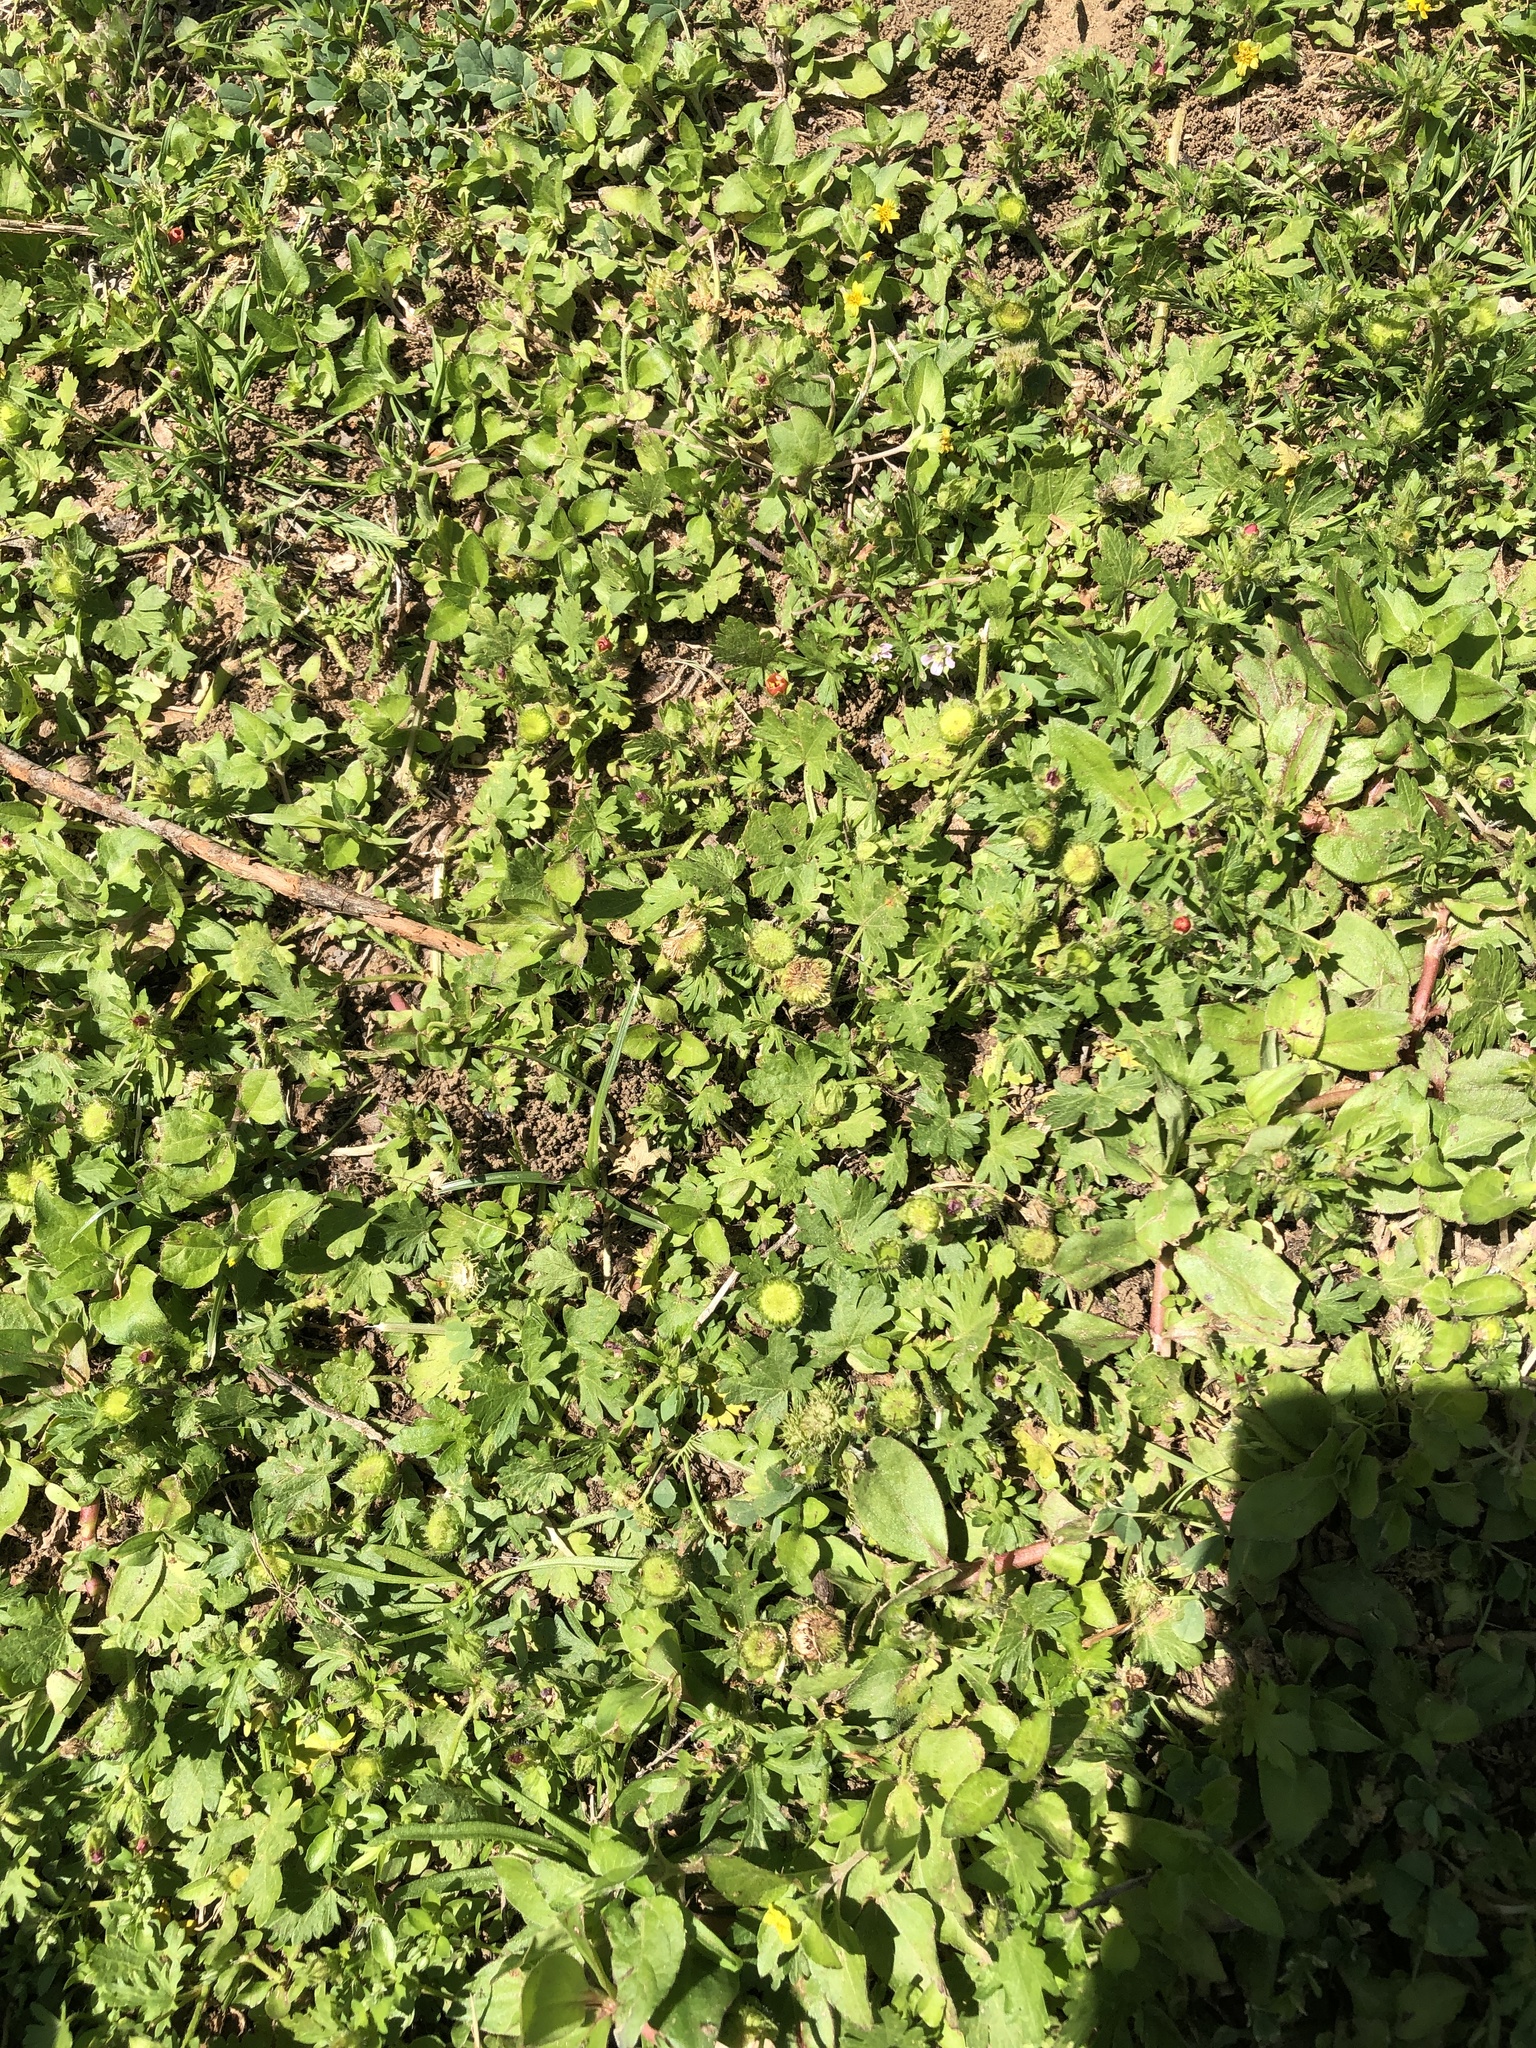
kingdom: Plantae
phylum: Tracheophyta
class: Magnoliopsida
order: Malvales
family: Malvaceae
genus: Modiola
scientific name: Modiola caroliniana
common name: Carolina bristlemallow
